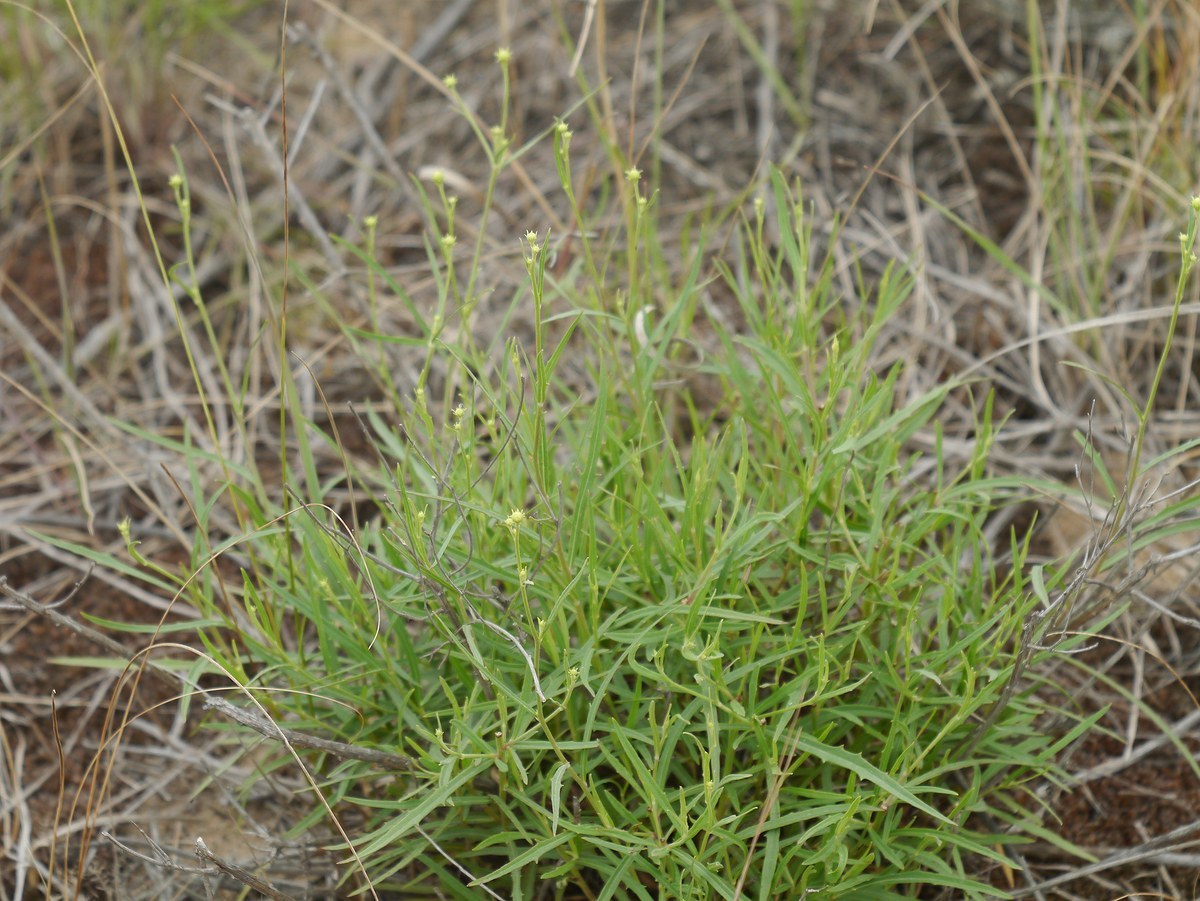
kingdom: Plantae
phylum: Tracheophyta
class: Magnoliopsida
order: Asterales
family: Asteraceae
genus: Hieracium
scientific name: Hieracium umbellatum
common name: Northern hawkweed
